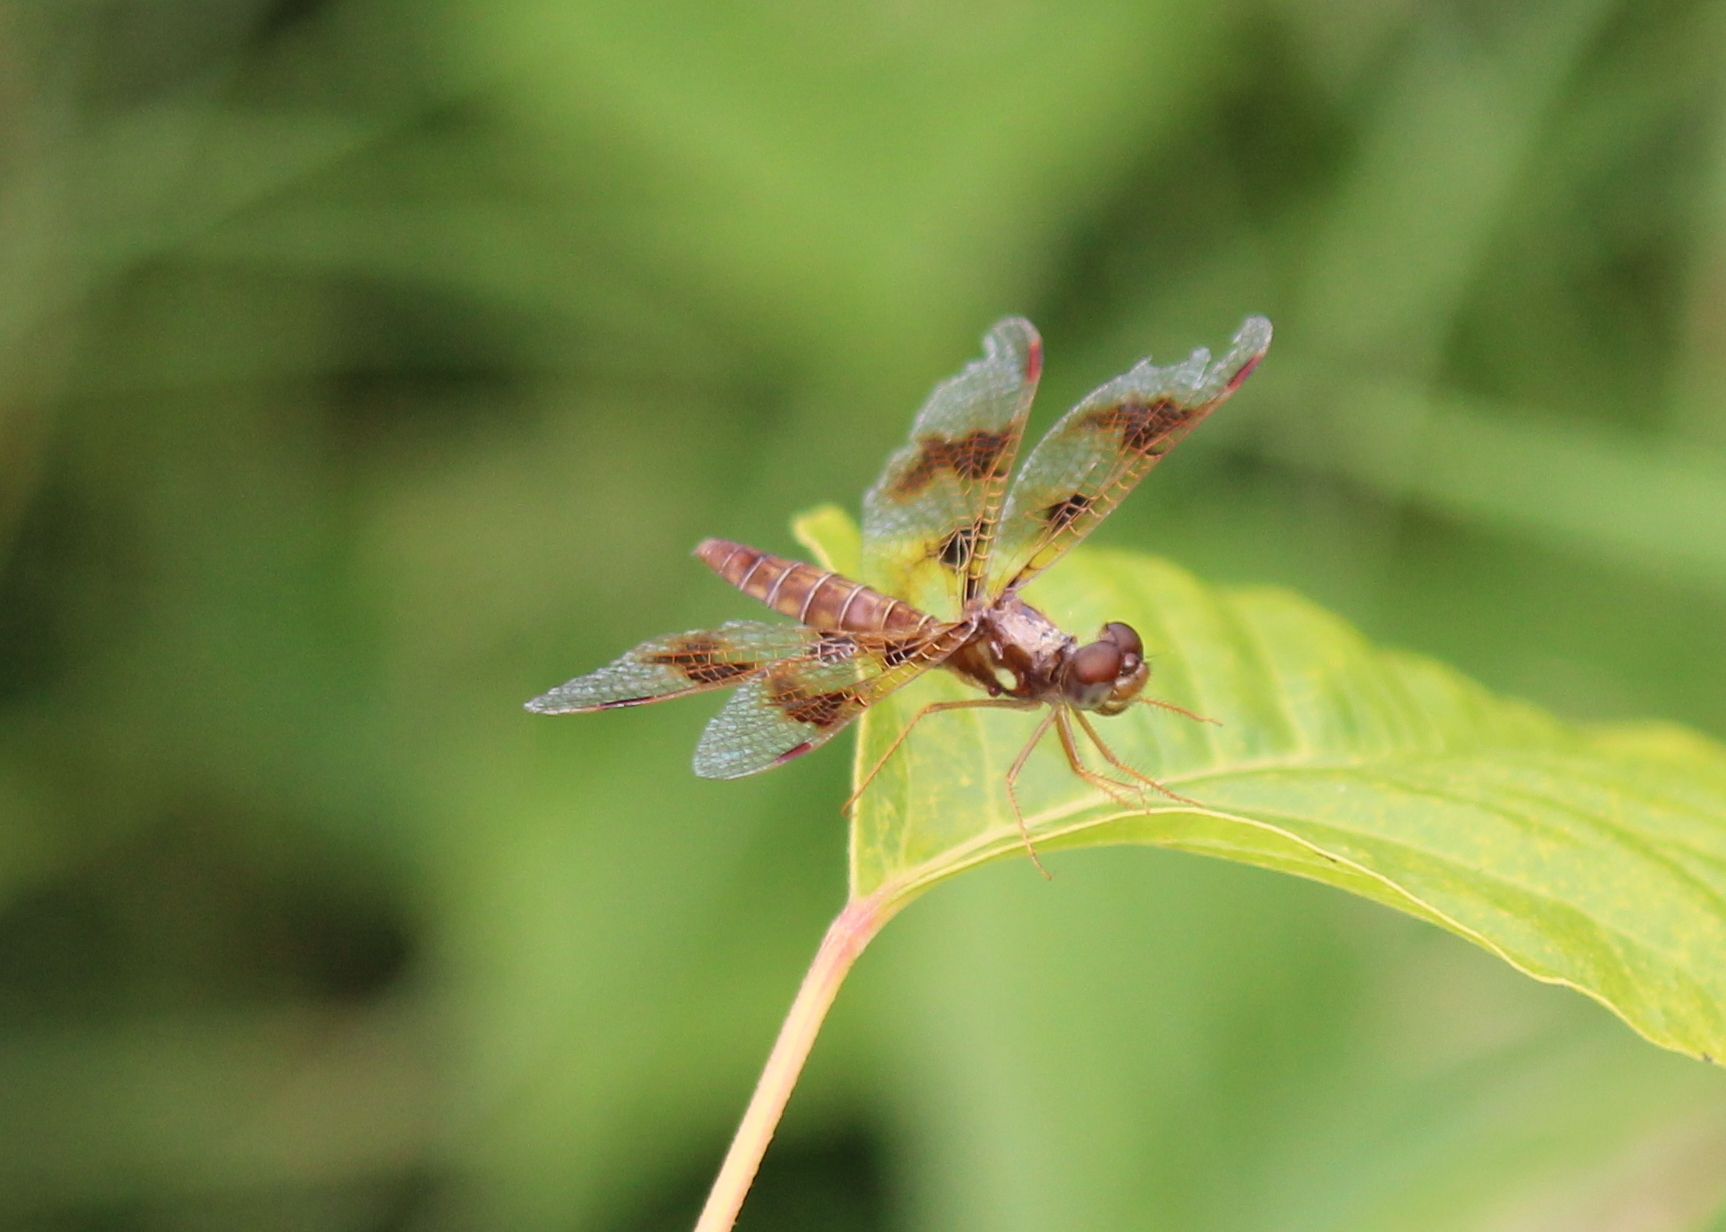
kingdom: Animalia
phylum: Arthropoda
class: Insecta
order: Odonata
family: Libellulidae
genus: Perithemis
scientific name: Perithemis tenera
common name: Eastern amberwing
